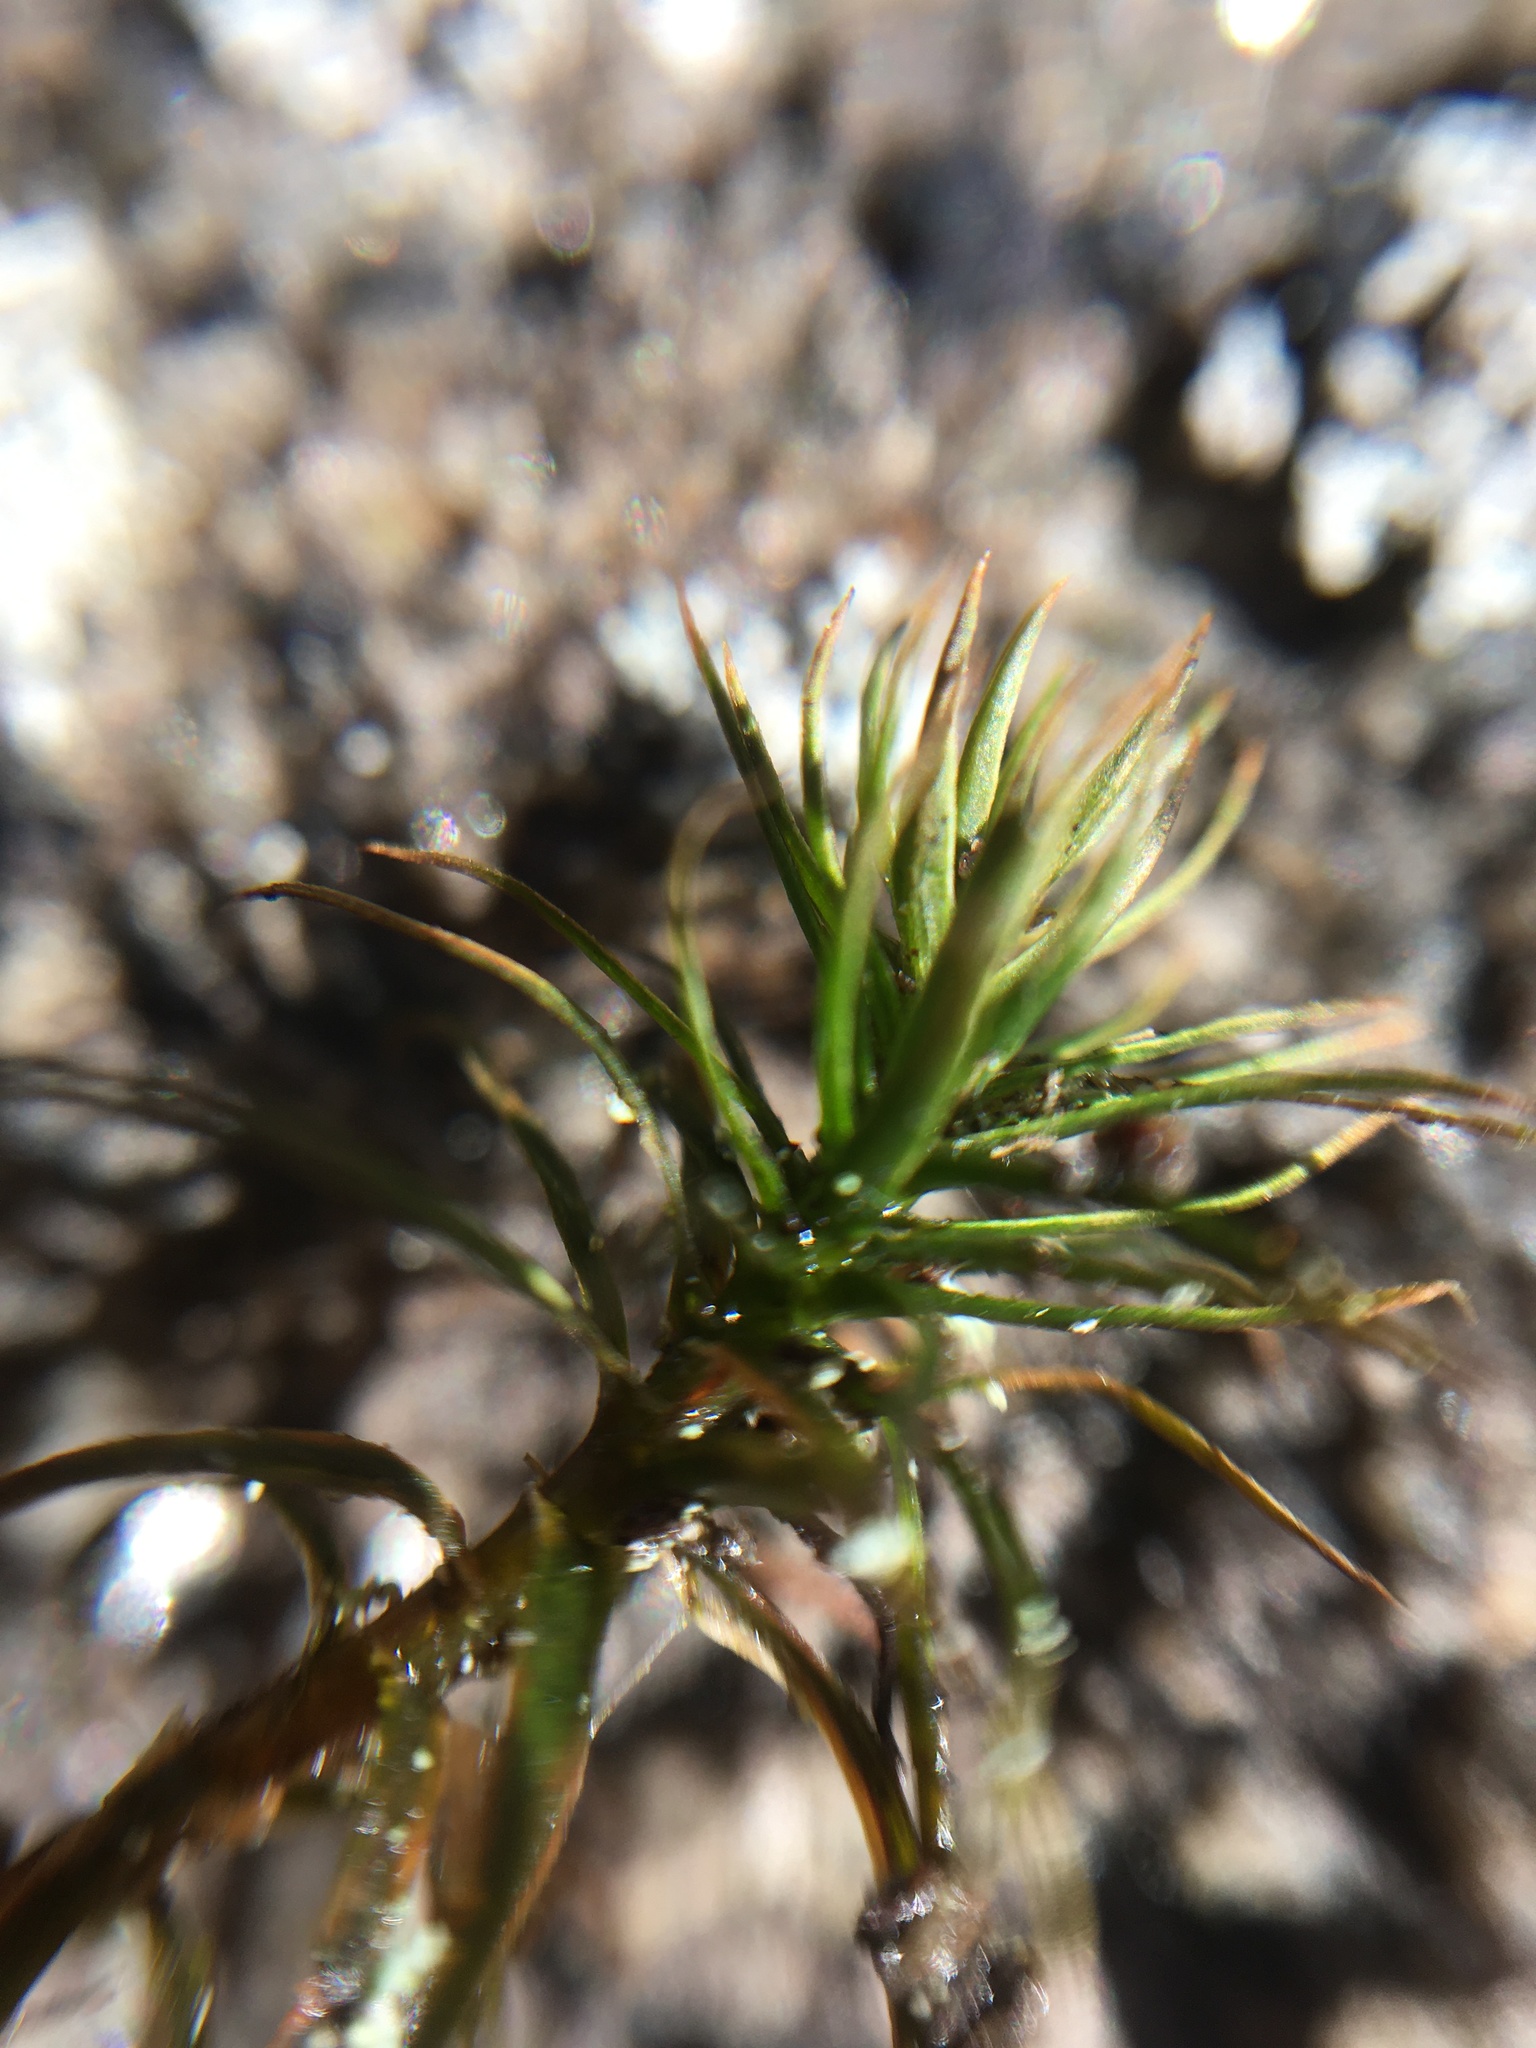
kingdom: Plantae
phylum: Bryophyta
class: Polytrichopsida
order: Polytrichales
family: Polytrichaceae
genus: Polytrichum
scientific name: Polytrichum commune
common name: Common haircap
